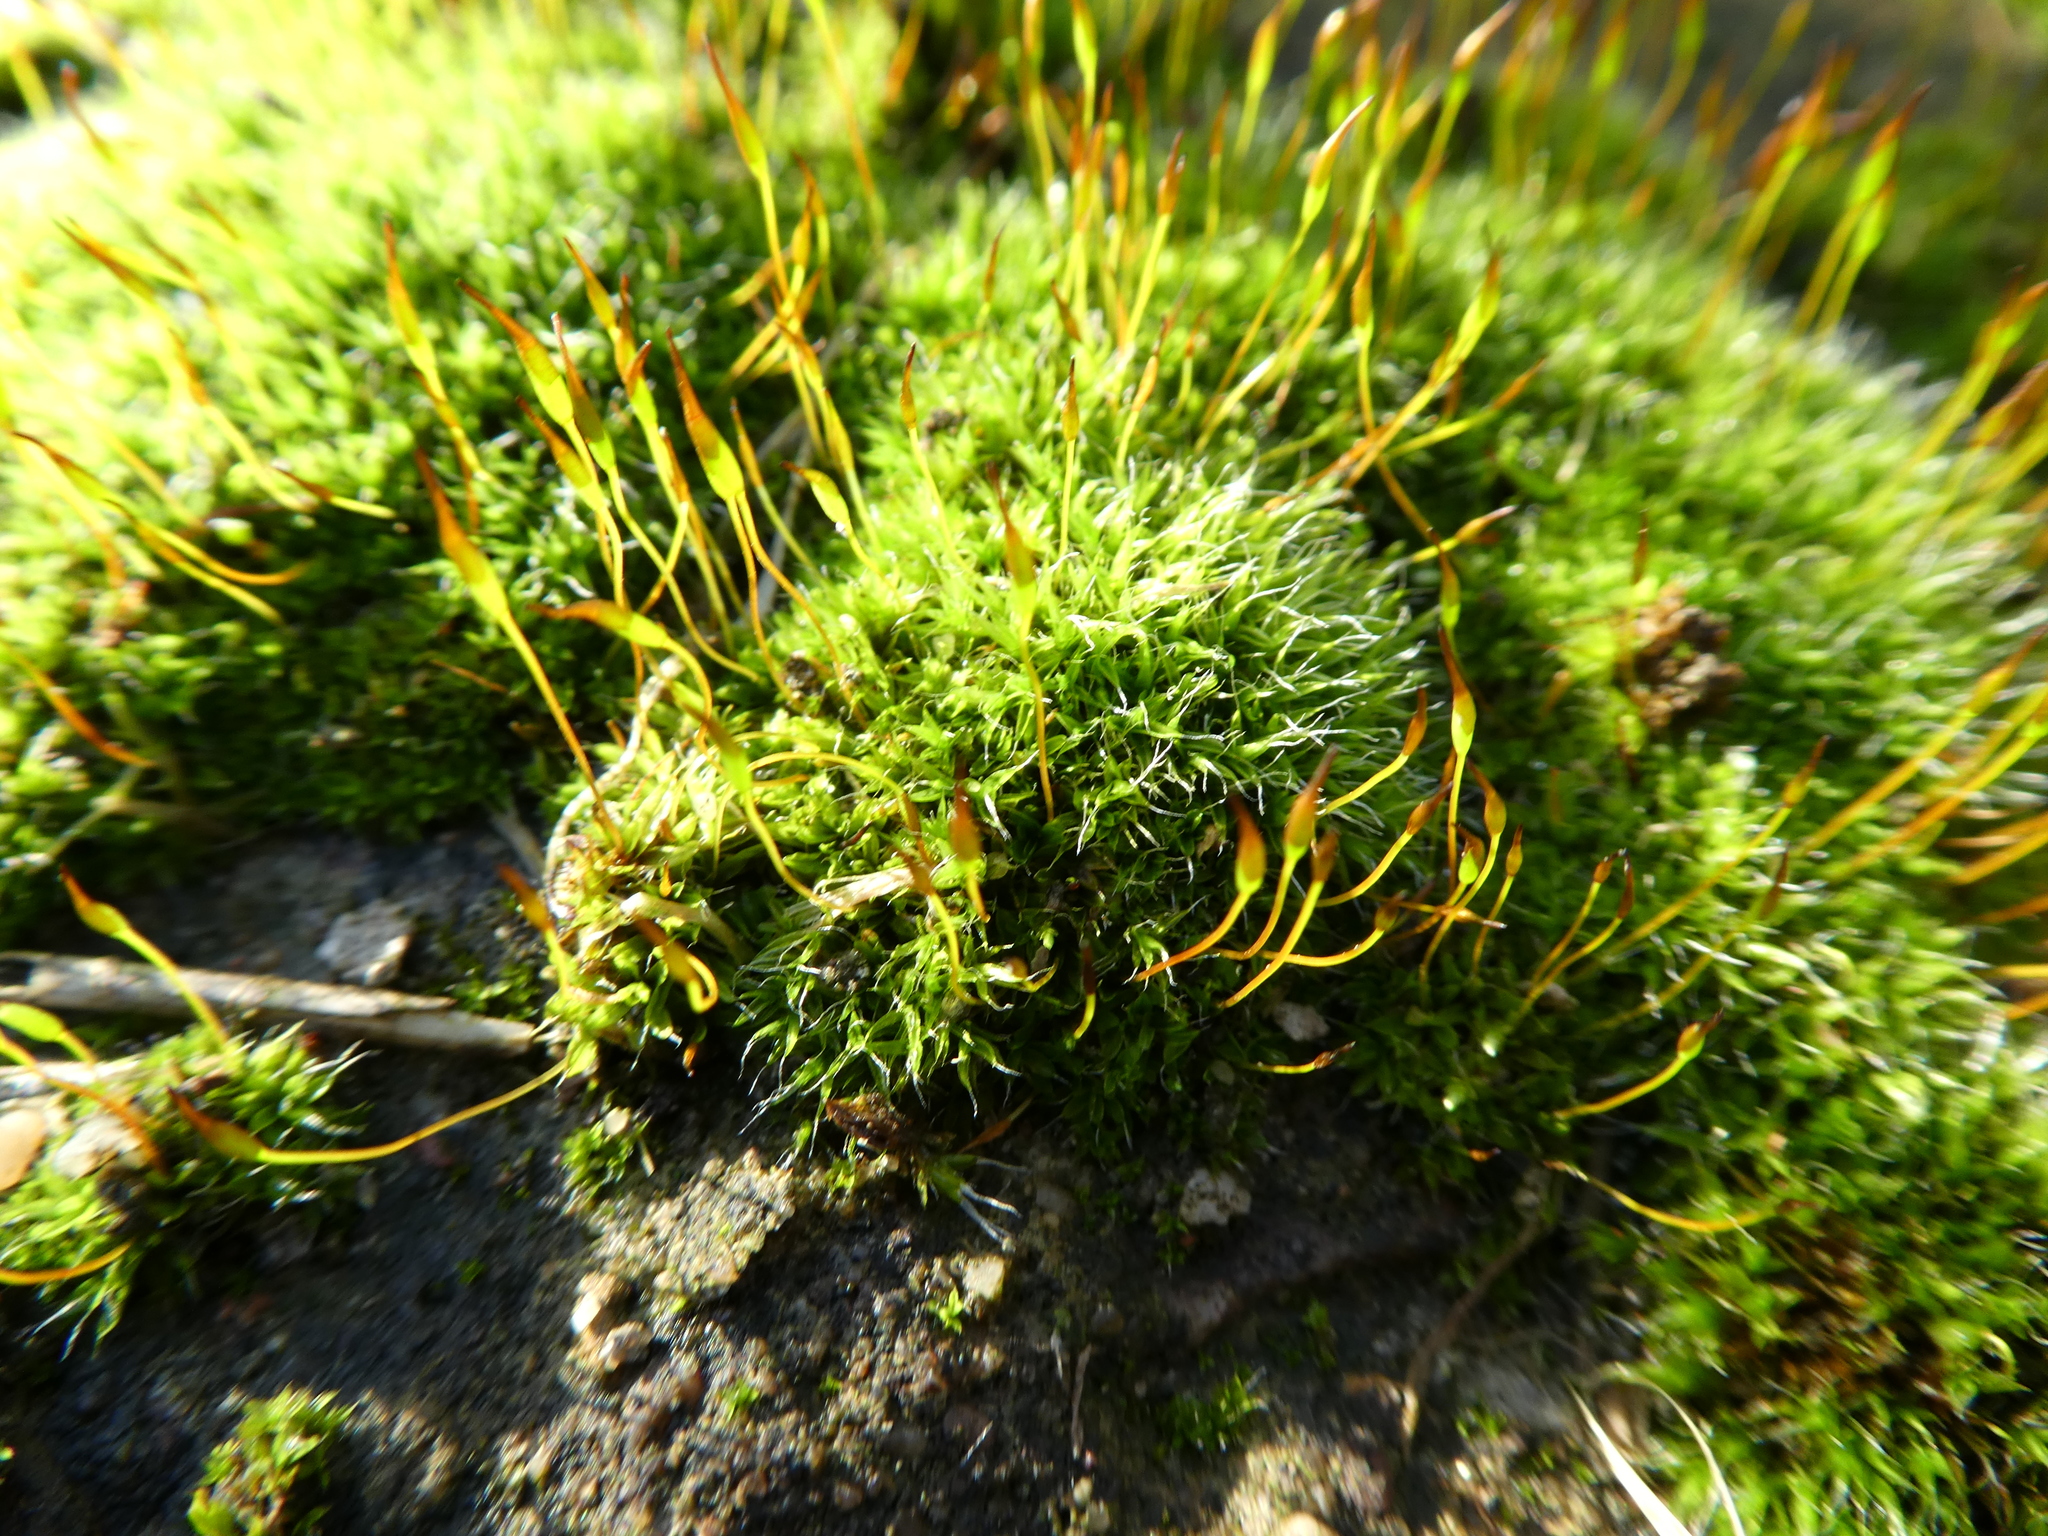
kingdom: Plantae
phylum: Bryophyta
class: Bryopsida
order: Pottiales
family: Pottiaceae
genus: Tortula
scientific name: Tortula muralis
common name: Wall screw-moss
